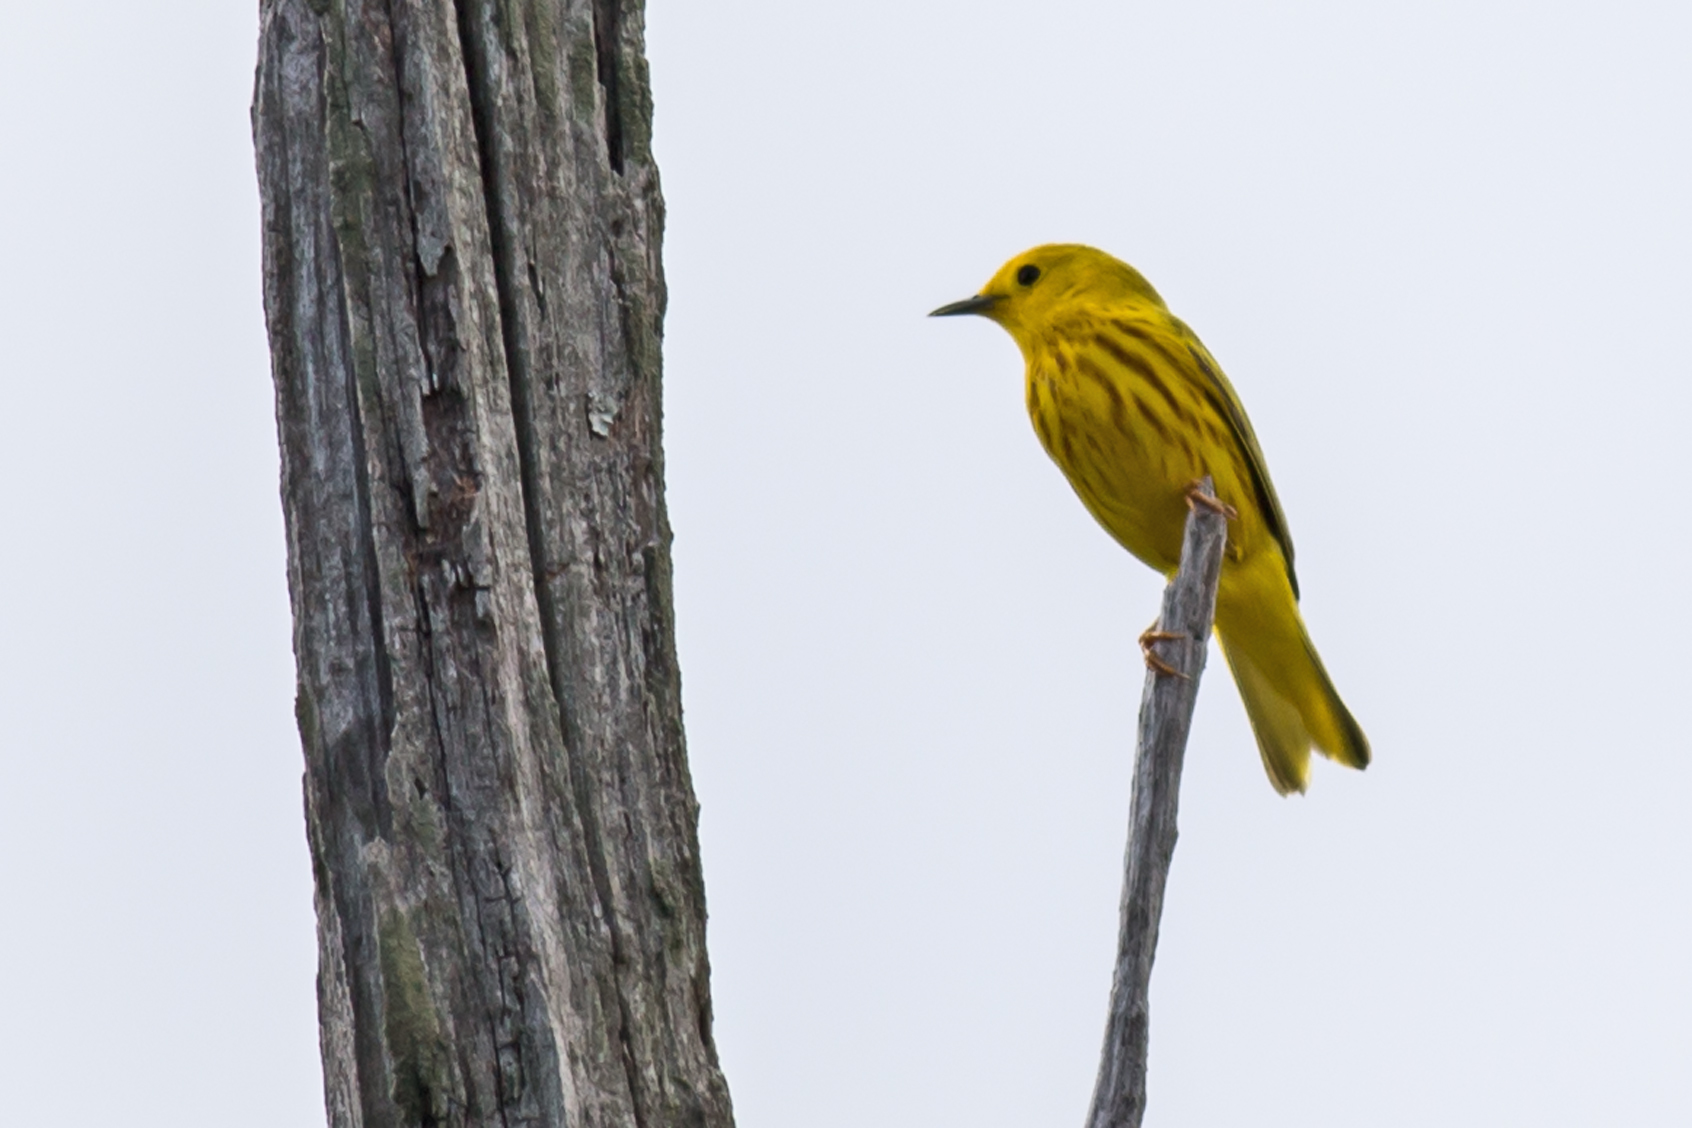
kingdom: Animalia
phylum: Chordata
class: Aves
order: Passeriformes
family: Parulidae
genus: Setophaga
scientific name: Setophaga petechia
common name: Yellow warbler
